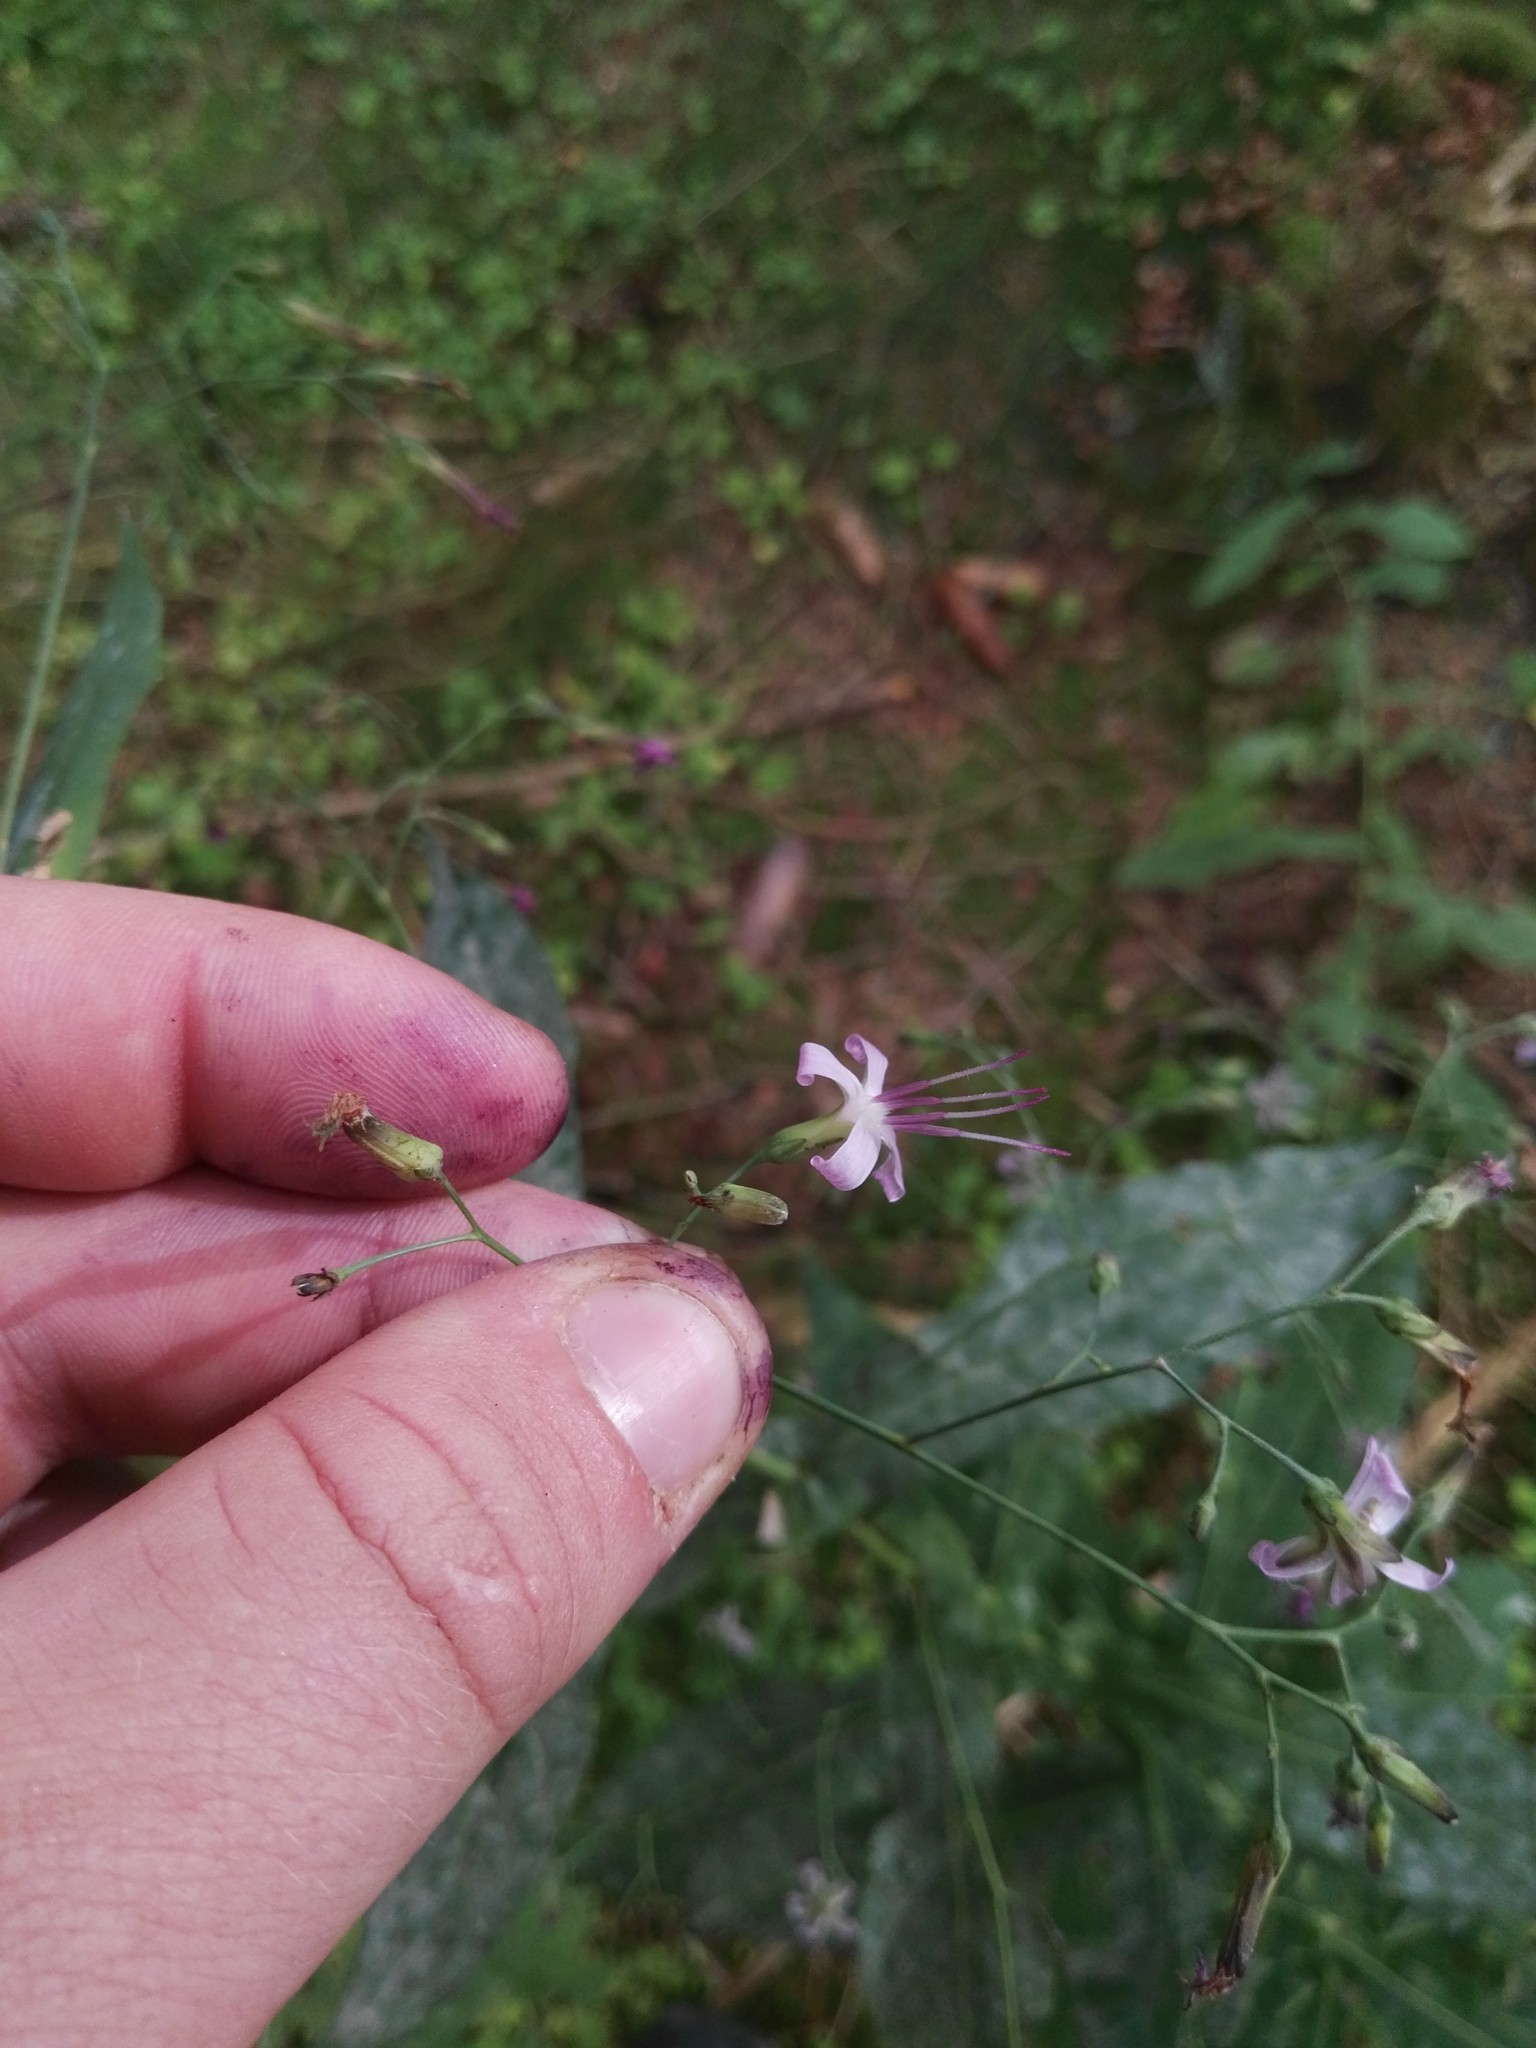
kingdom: Plantae
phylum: Tracheophyta
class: Magnoliopsida
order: Asterales
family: Asteraceae
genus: Prenanthes
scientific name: Prenanthes purpurea
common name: Purple lettuce
